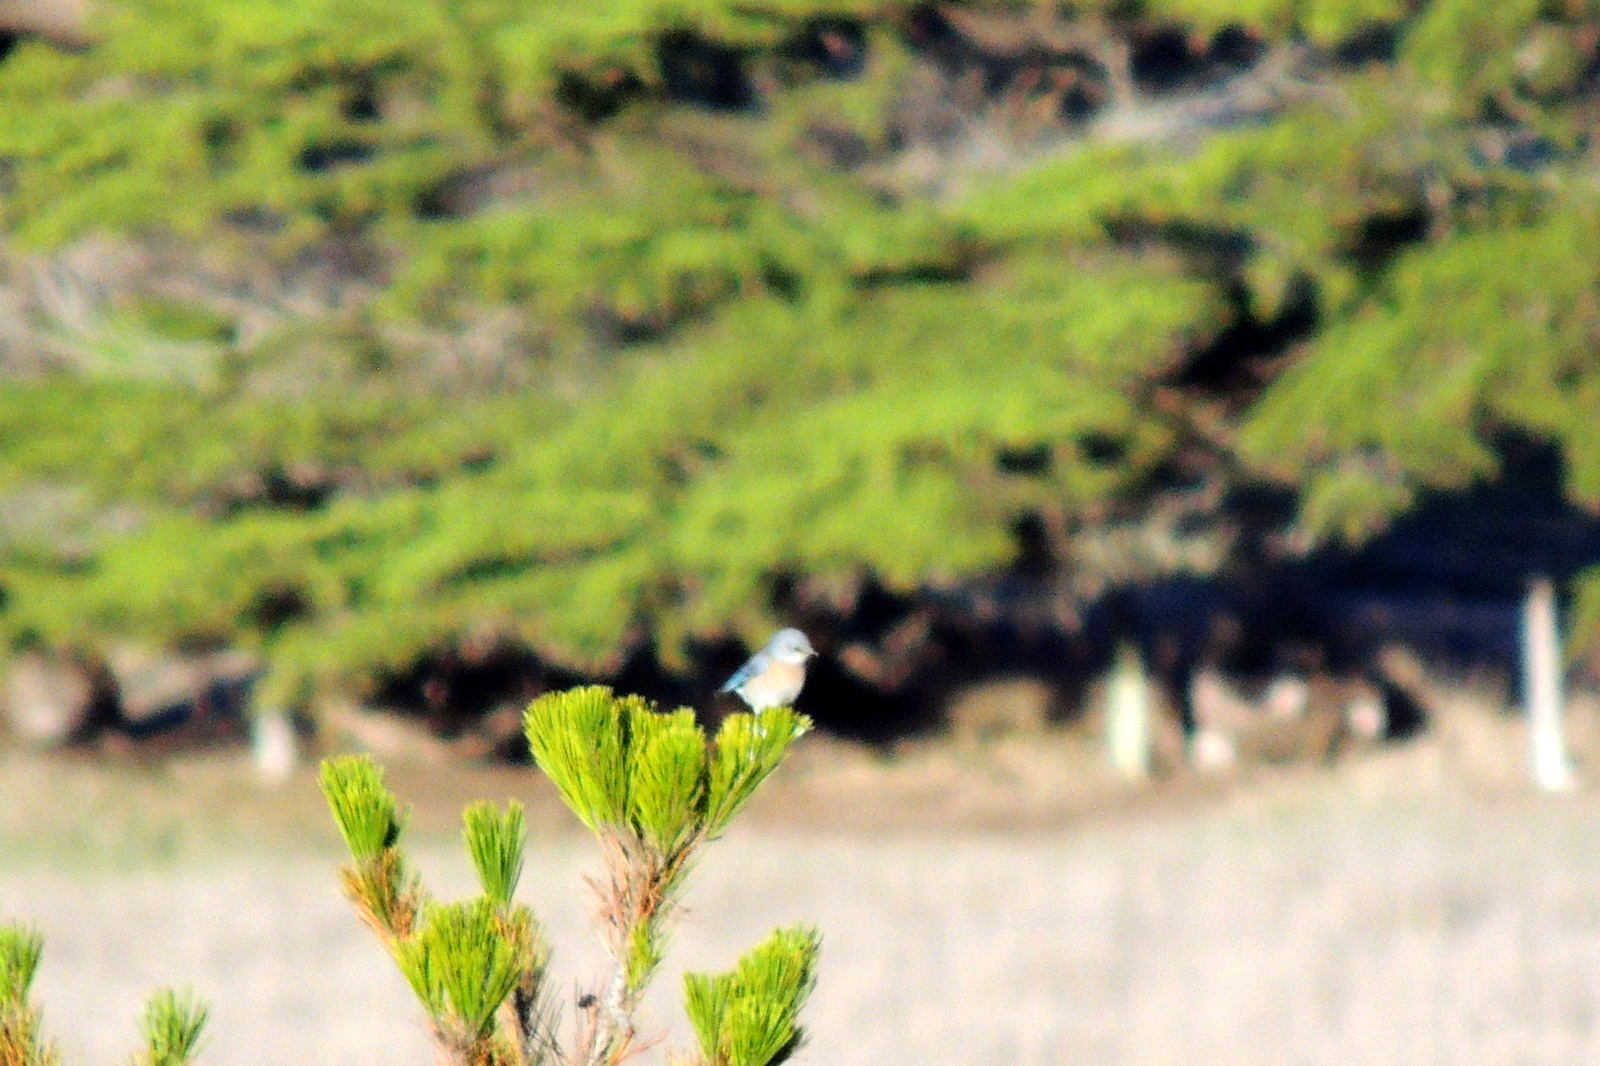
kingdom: Animalia
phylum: Chordata
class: Aves
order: Passeriformes
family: Turdidae
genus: Sialia
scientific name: Sialia mexicana
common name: Western bluebird
